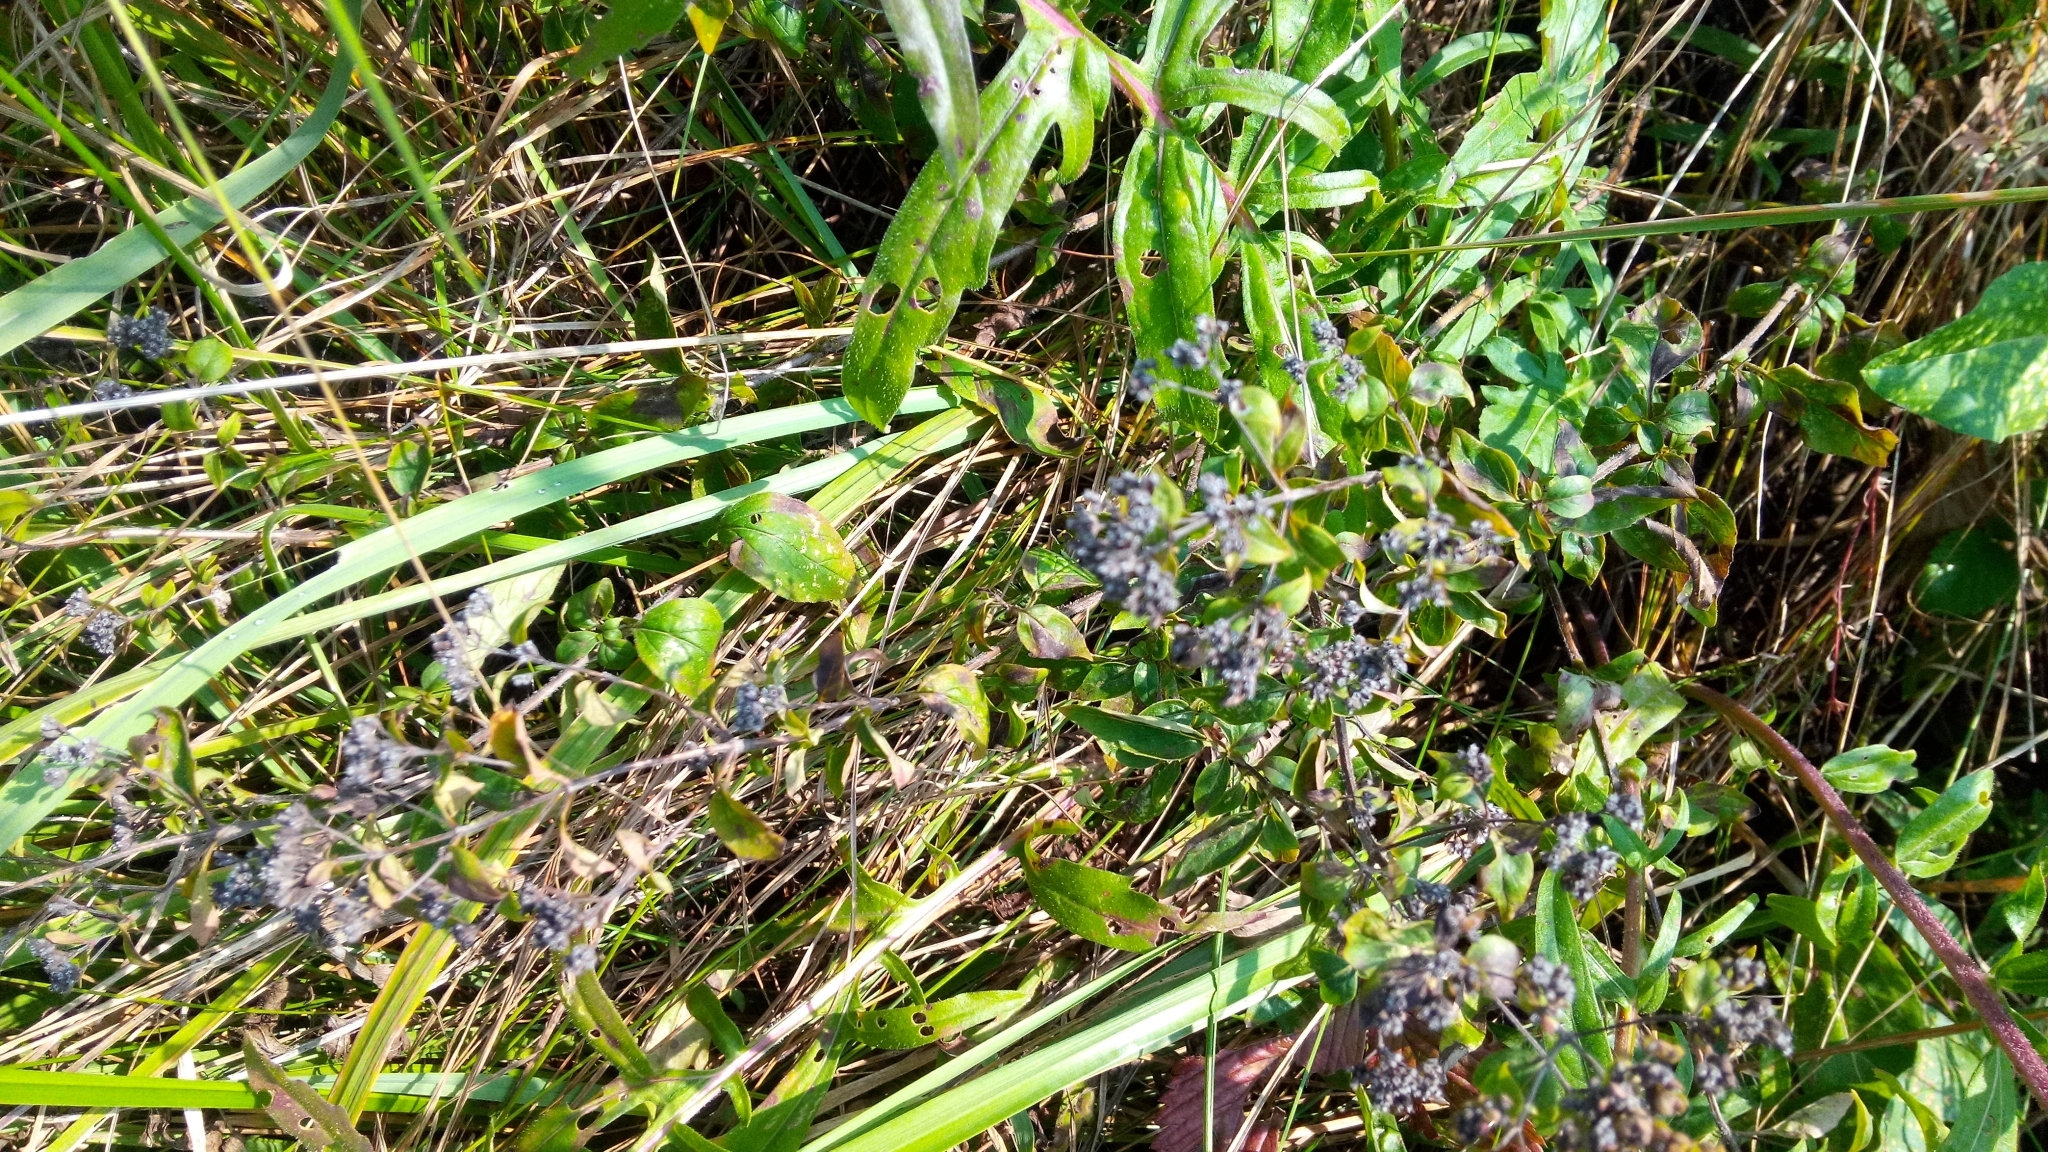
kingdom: Plantae
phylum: Tracheophyta
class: Magnoliopsida
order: Lamiales
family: Lamiaceae
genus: Origanum
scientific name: Origanum vulgare
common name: Wild marjoram
